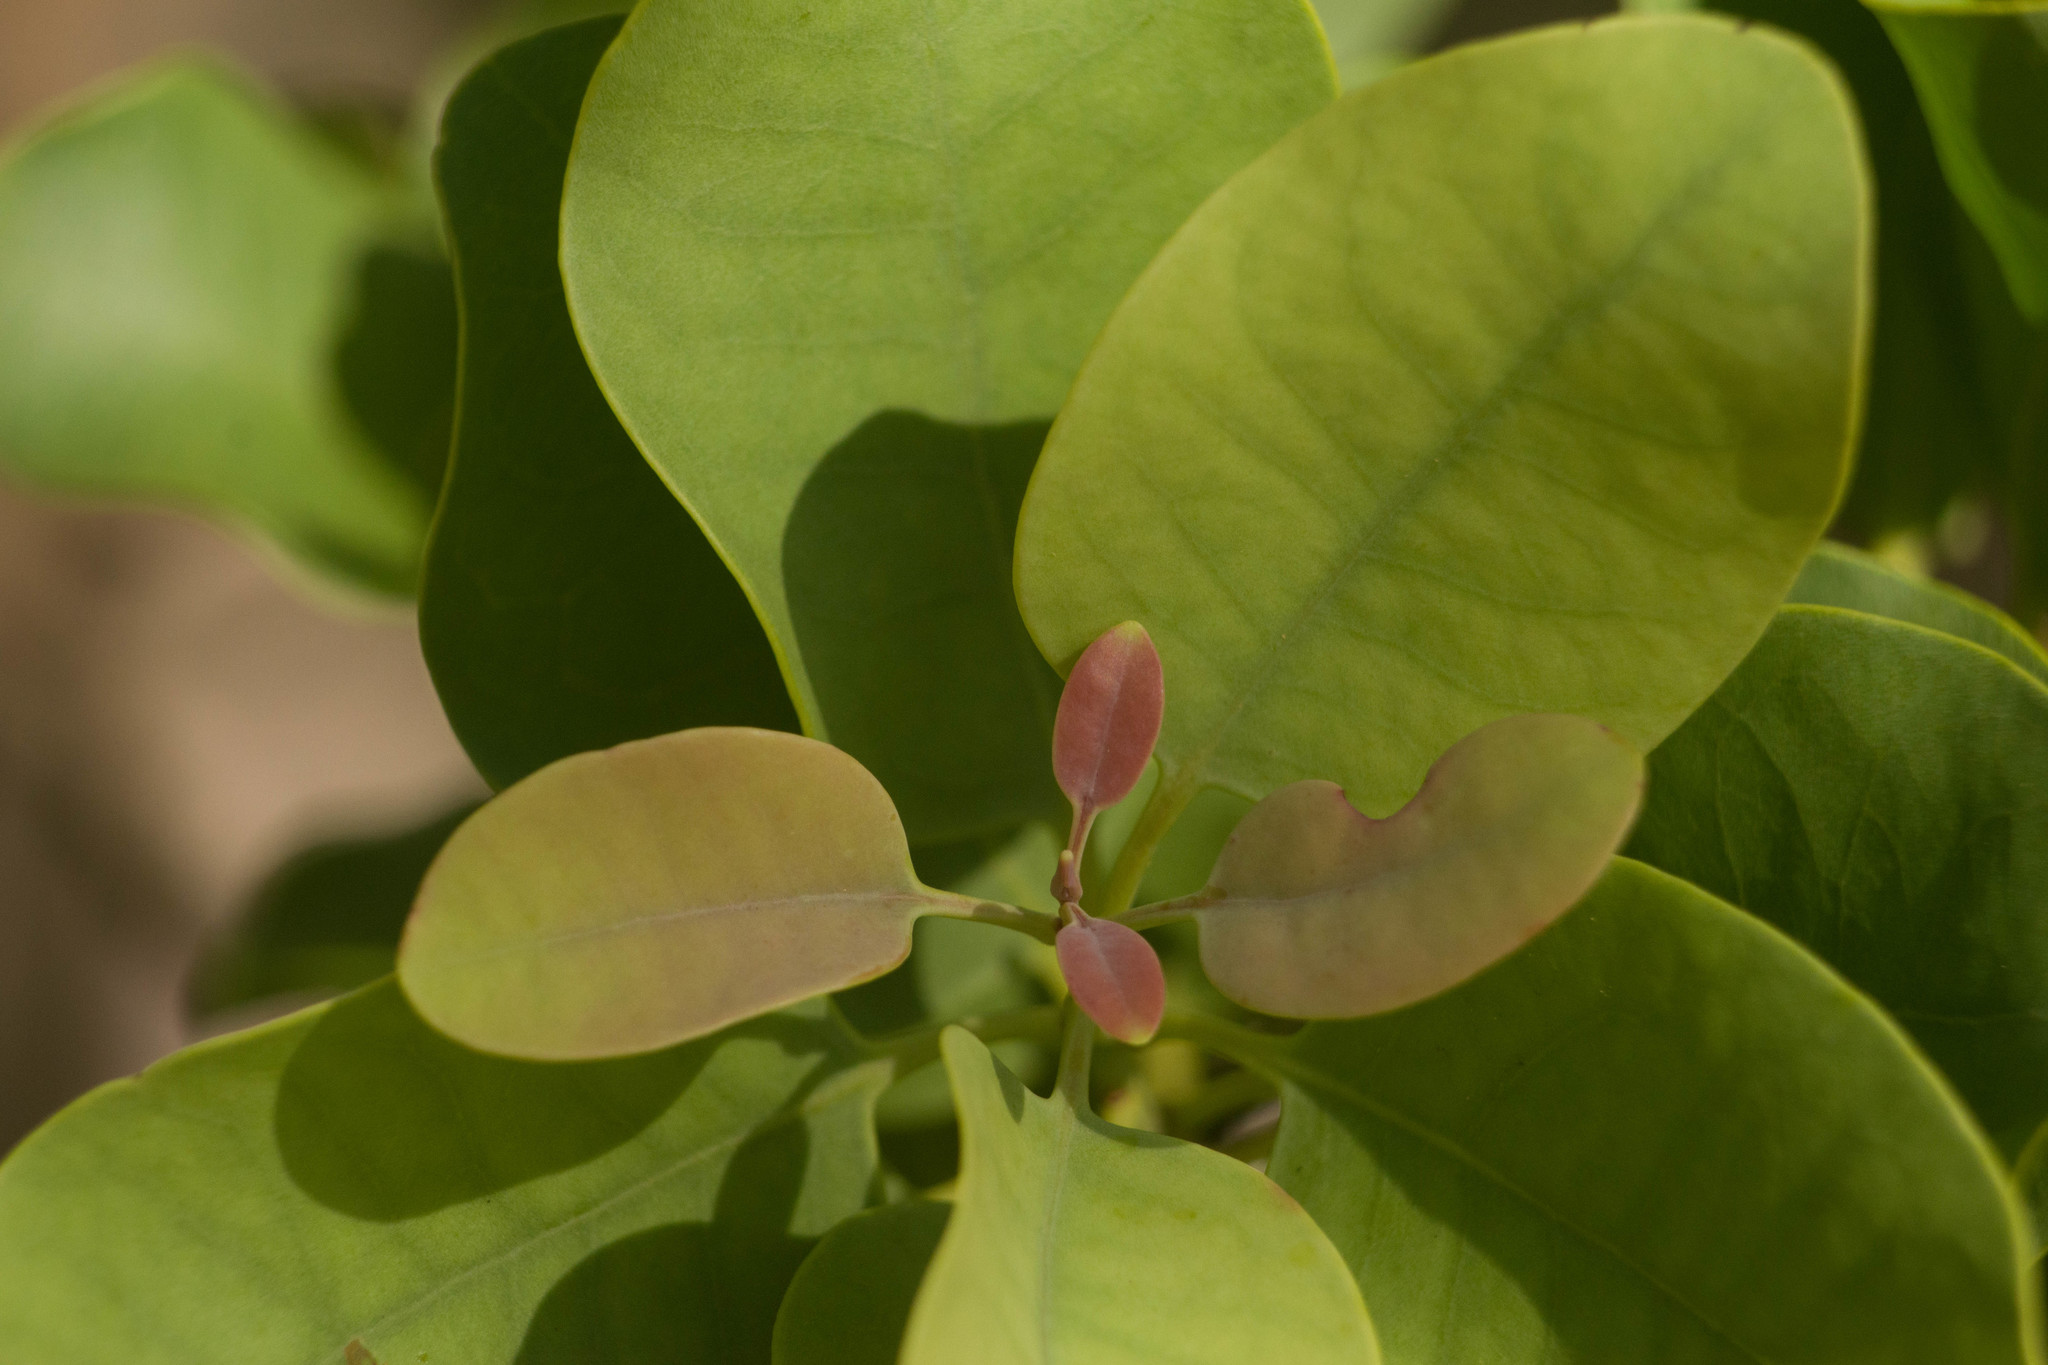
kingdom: Plantae
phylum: Tracheophyta
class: Magnoliopsida
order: Santalales
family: Santalaceae
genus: Santalum
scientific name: Santalum ellipticum
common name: Coast sandalwood
